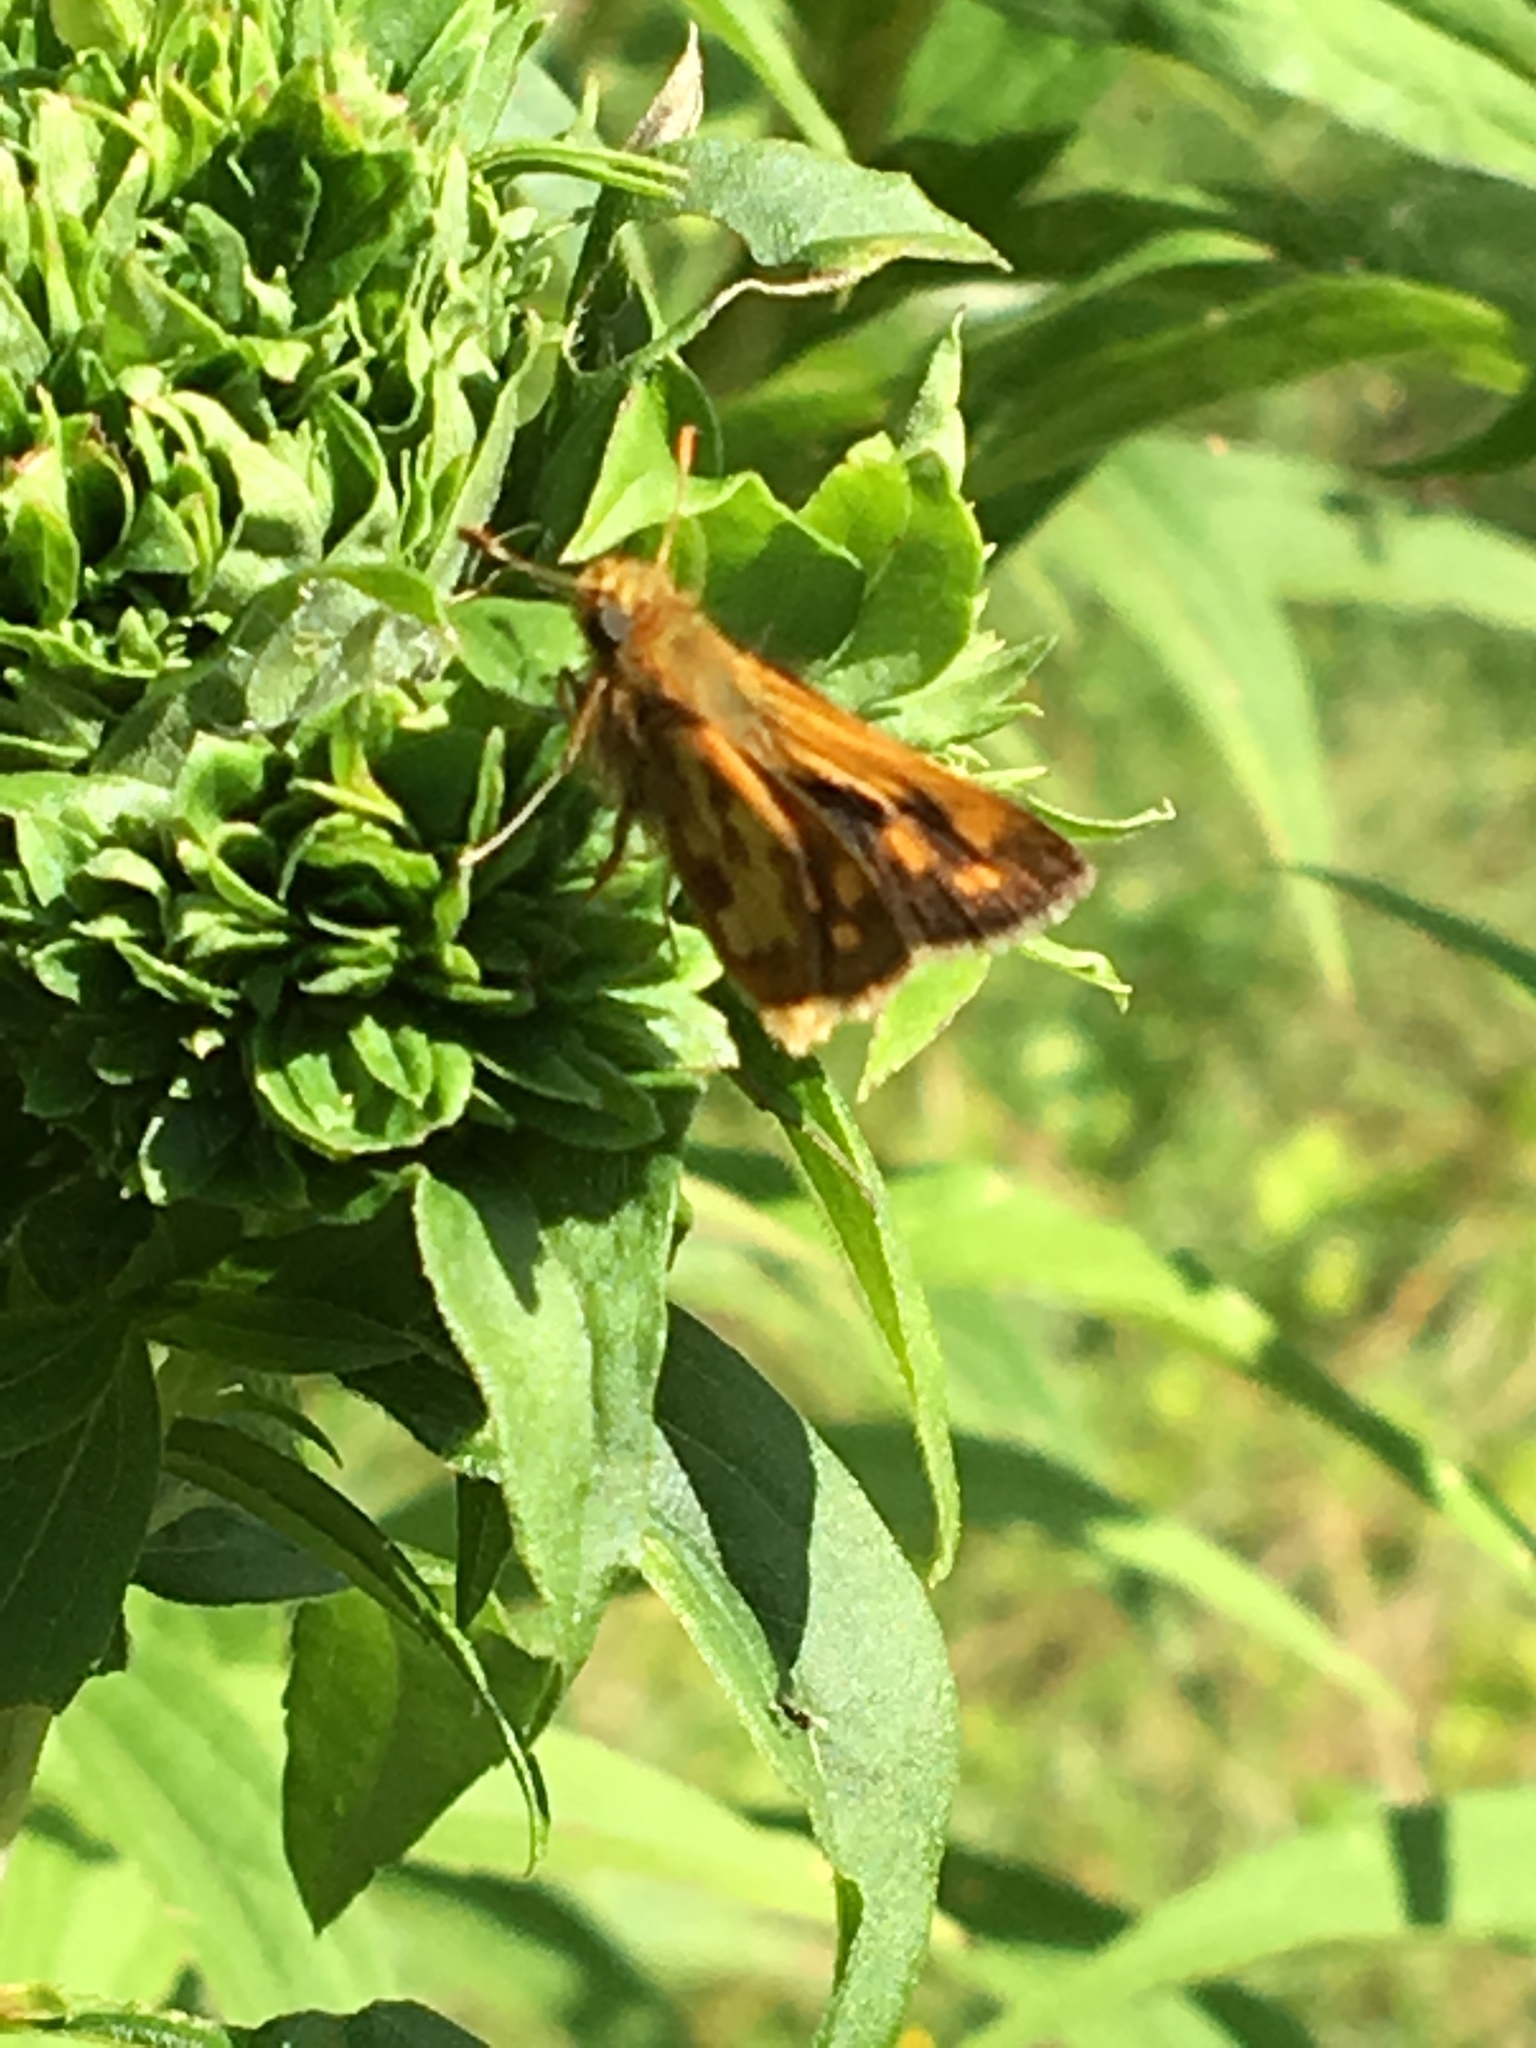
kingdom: Animalia
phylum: Arthropoda
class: Insecta
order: Lepidoptera
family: Hesperiidae
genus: Polites
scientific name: Polites coras
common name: Peck's skipper
